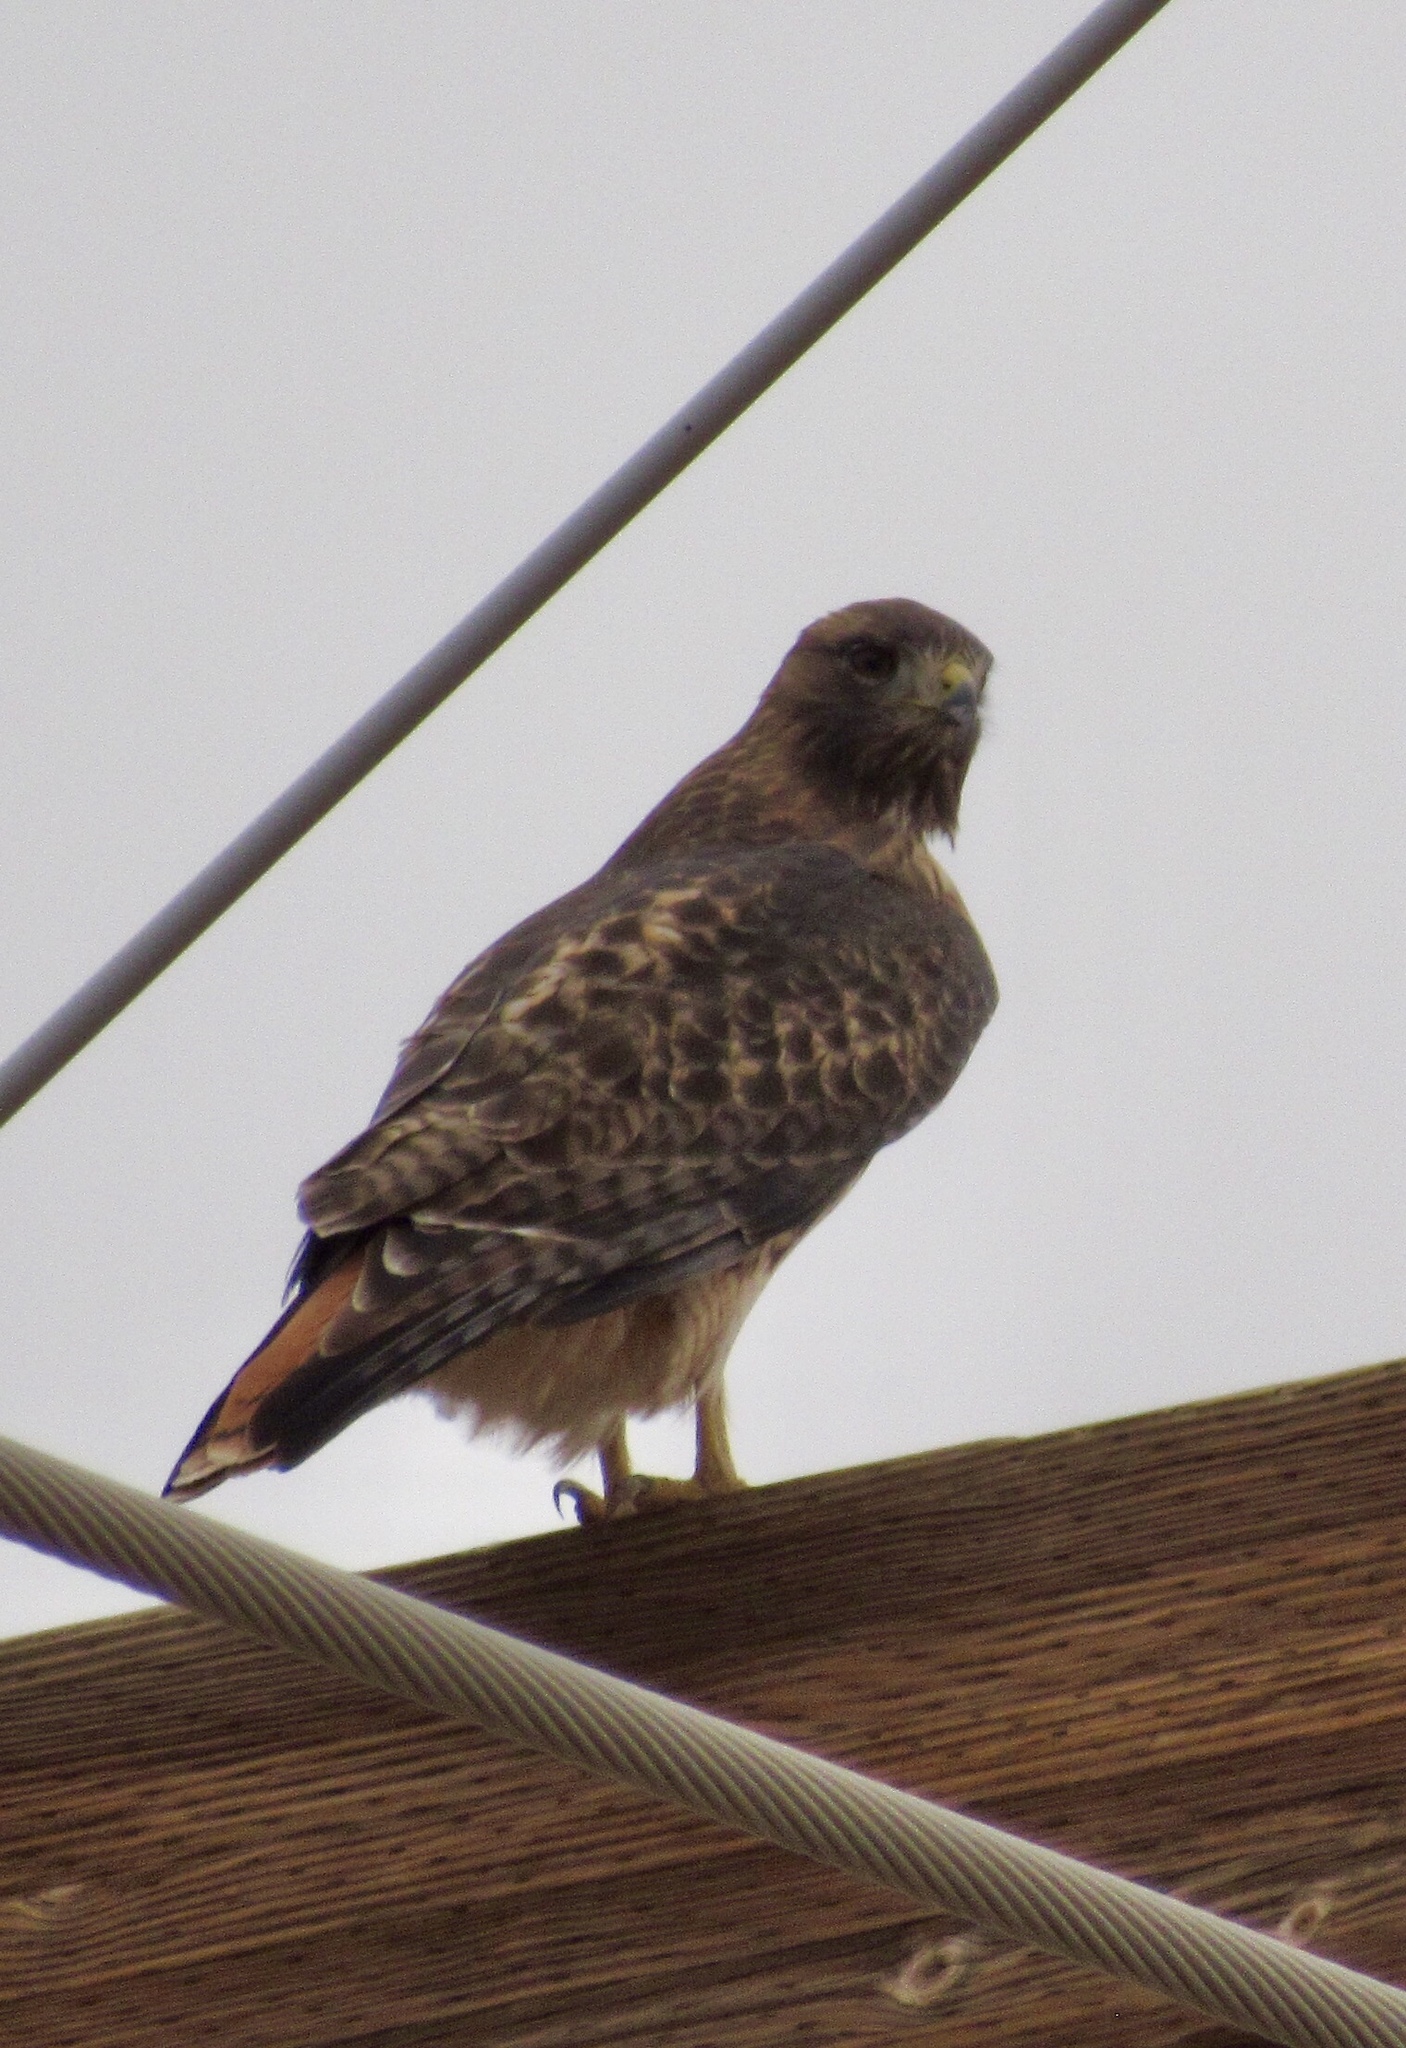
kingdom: Animalia
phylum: Chordata
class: Aves
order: Accipitriformes
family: Accipitridae
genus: Buteo
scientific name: Buteo jamaicensis
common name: Red-tailed hawk
